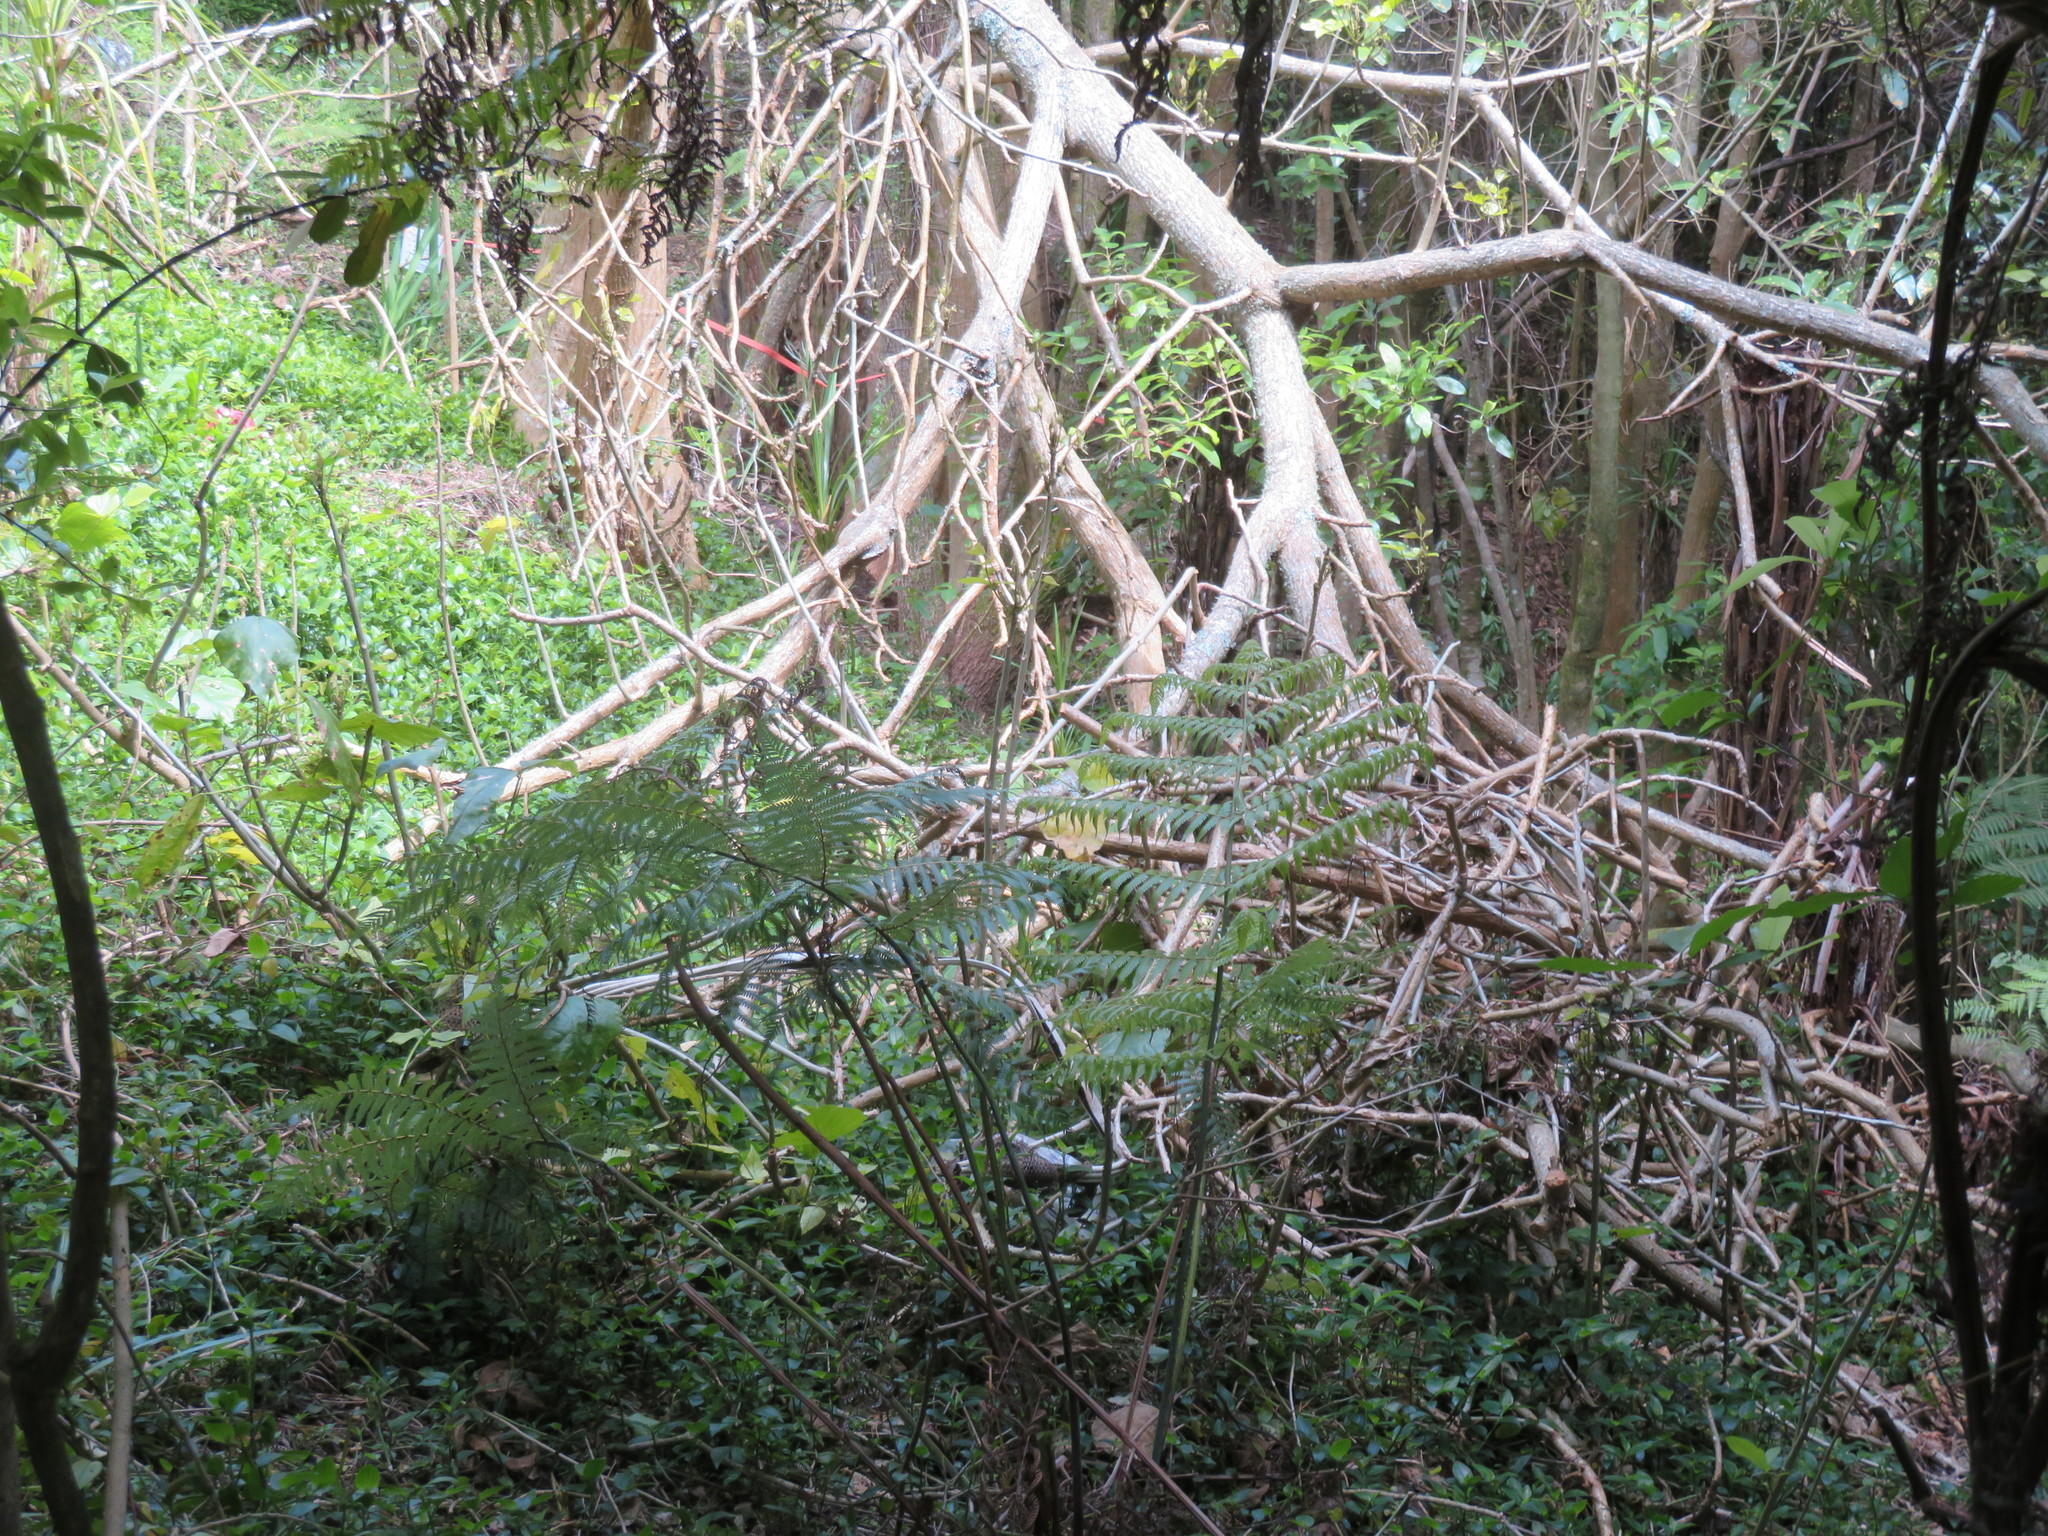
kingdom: Plantae
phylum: Tracheophyta
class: Liliopsida
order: Commelinales
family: Commelinaceae
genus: Tradescantia
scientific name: Tradescantia fluminensis
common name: Wandering-jew
